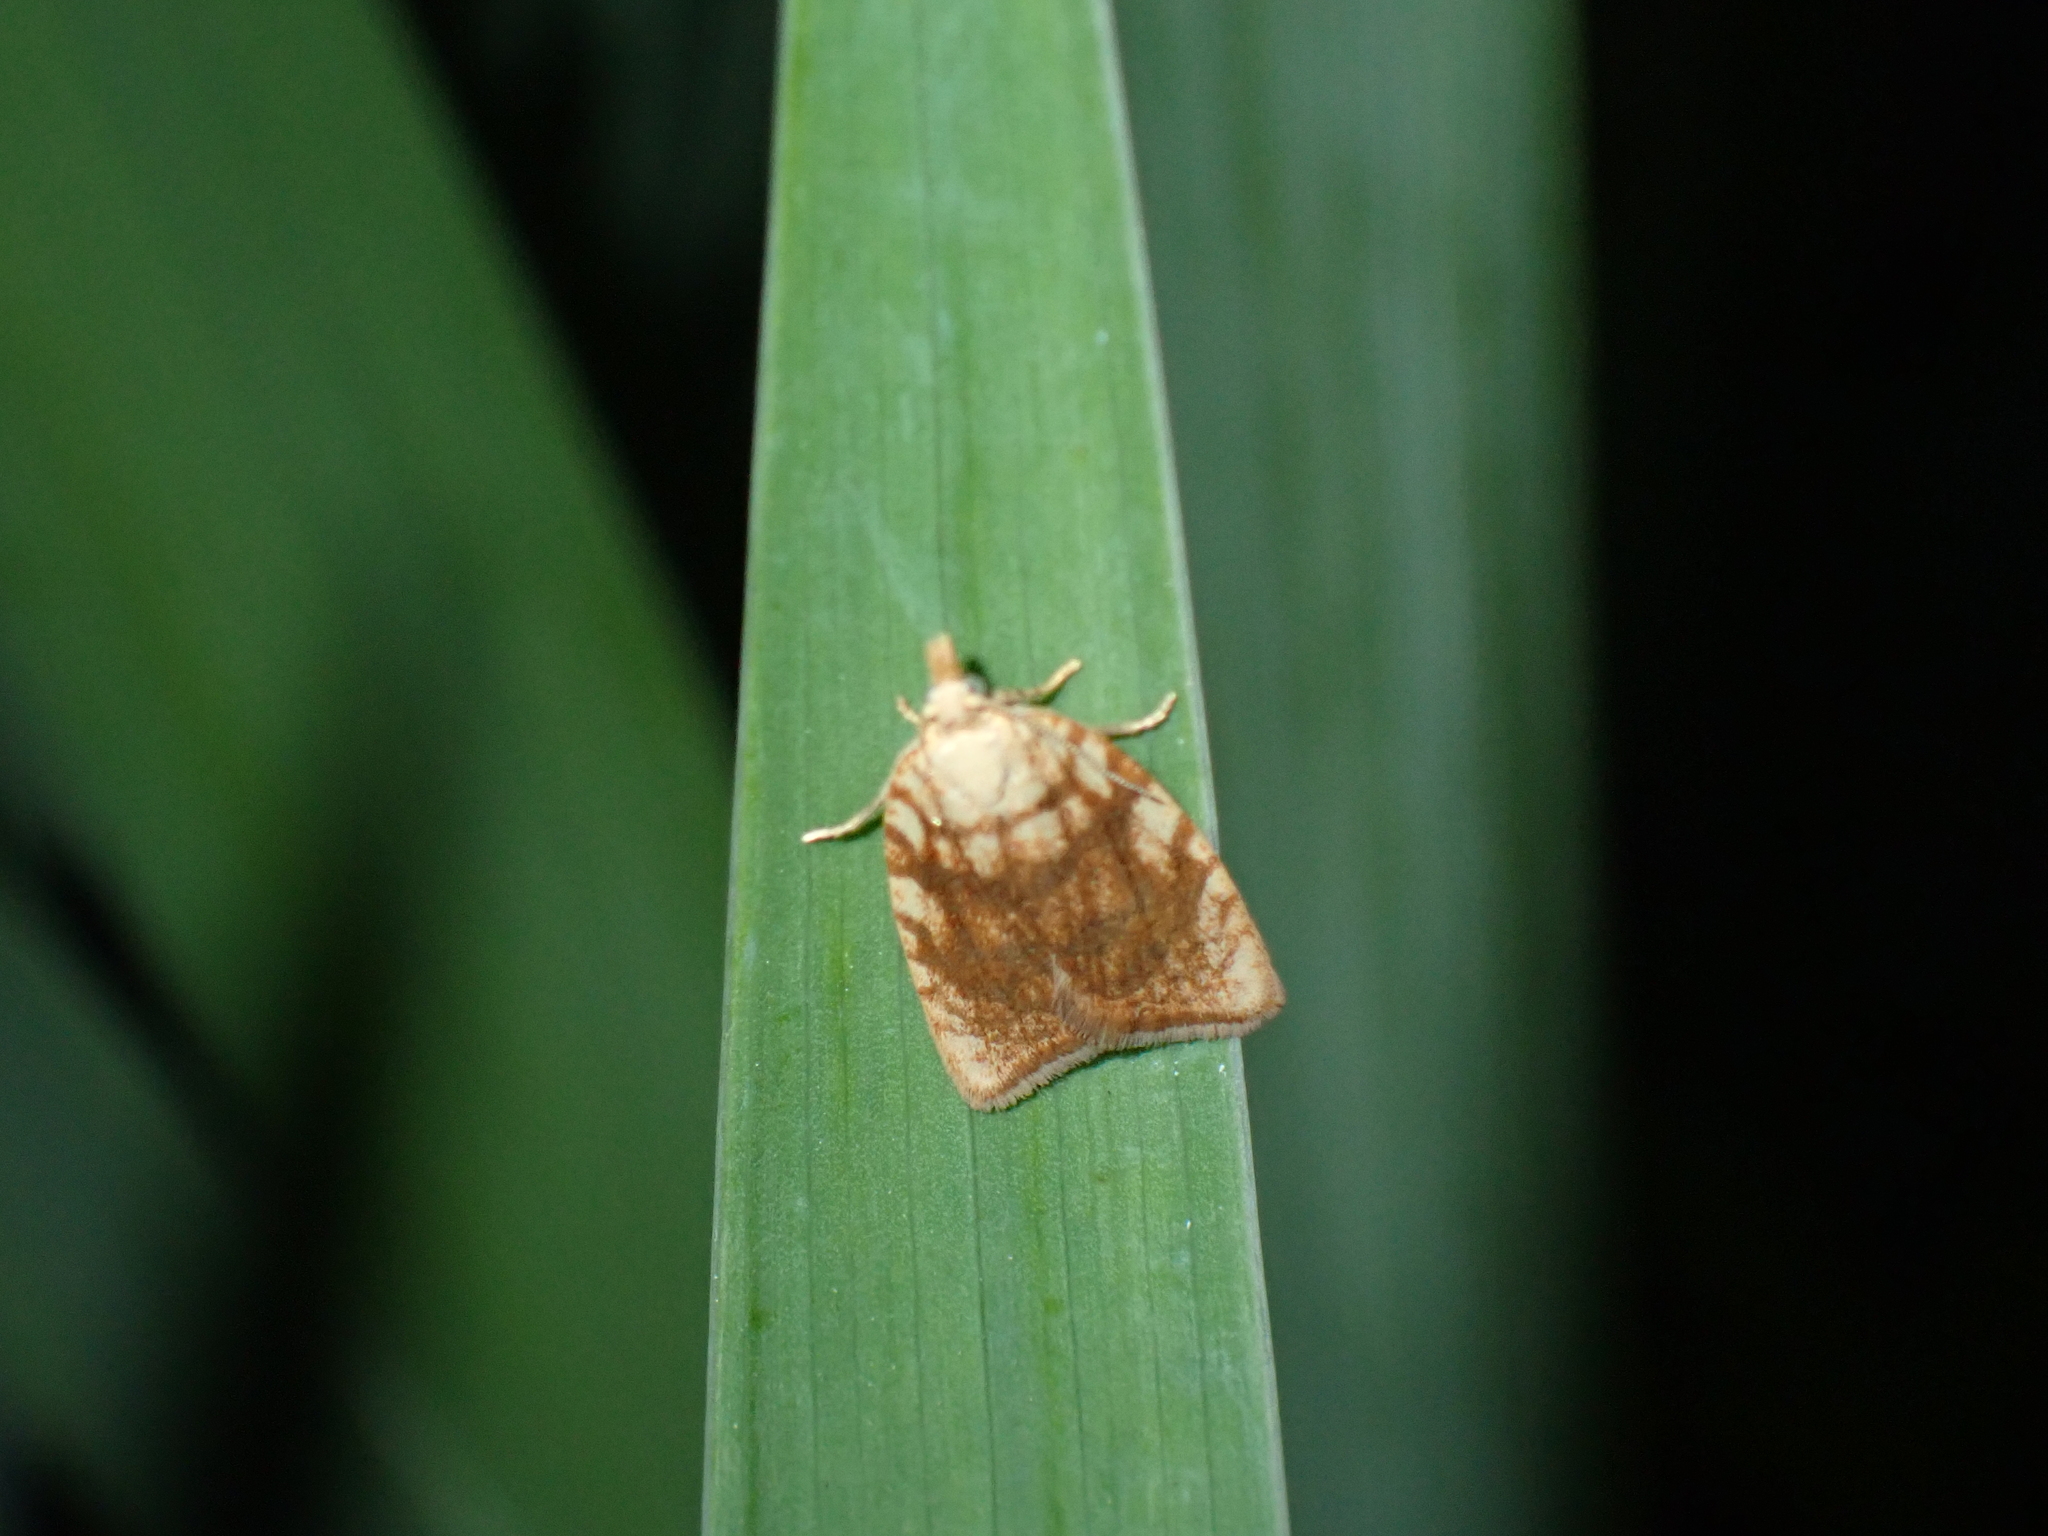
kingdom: Animalia
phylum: Arthropoda
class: Insecta
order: Lepidoptera
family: Tortricidae
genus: Aleimma
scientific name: Aleimma loeflingiana
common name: Yellow oak button
